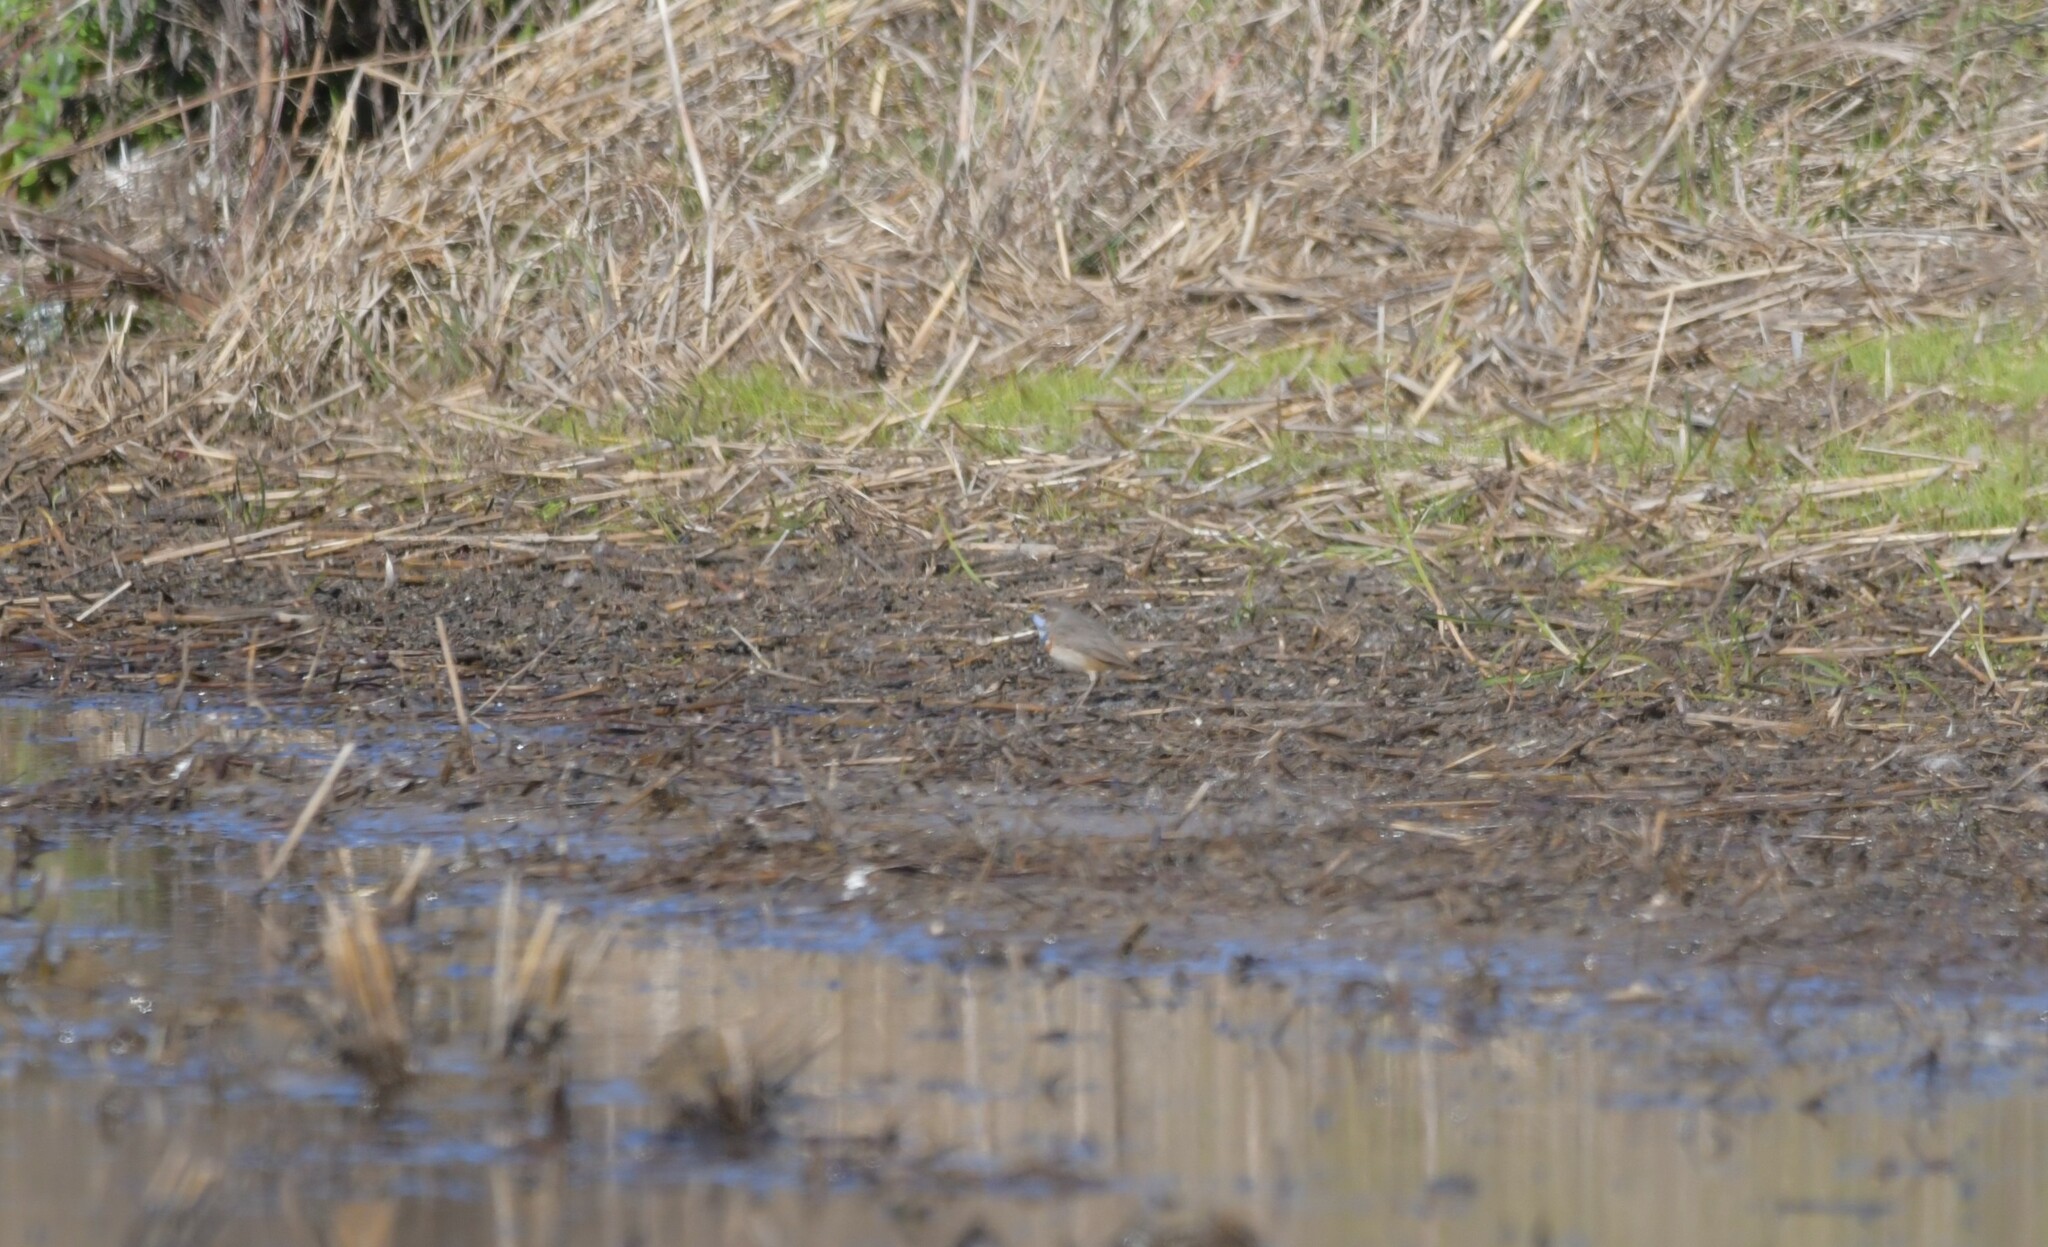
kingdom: Animalia
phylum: Chordata
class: Aves
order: Passeriformes
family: Muscicapidae
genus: Luscinia
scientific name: Luscinia svecica
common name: Bluethroat
